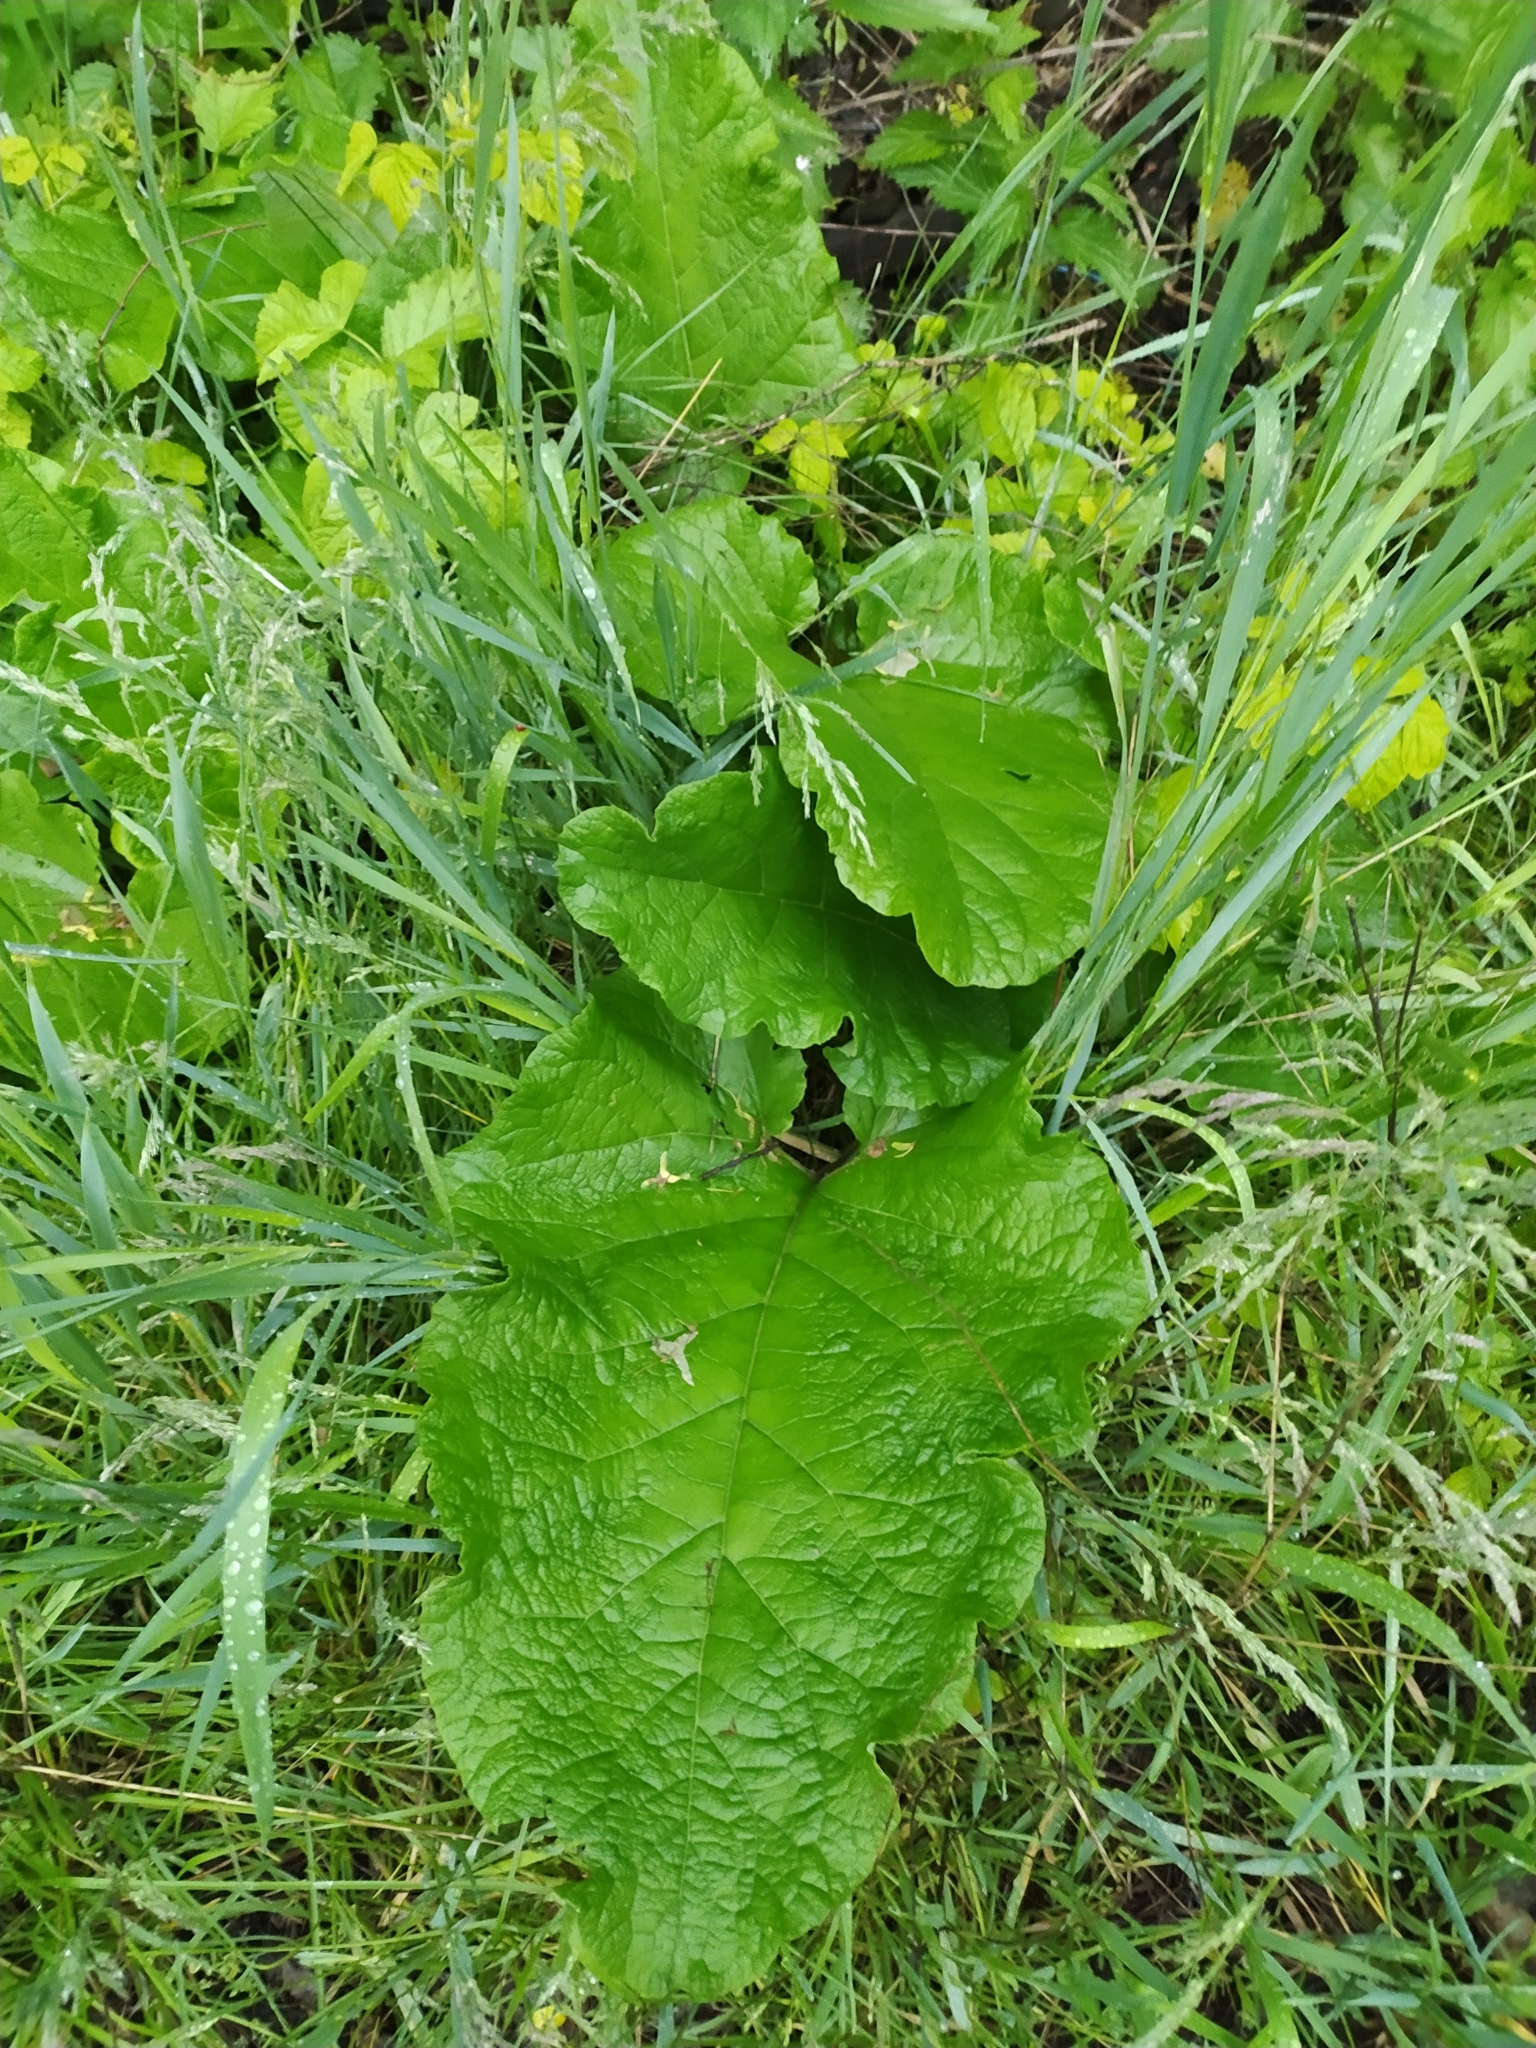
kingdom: Plantae
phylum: Tracheophyta
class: Magnoliopsida
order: Asterales
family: Asteraceae
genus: Arctium
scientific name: Arctium
